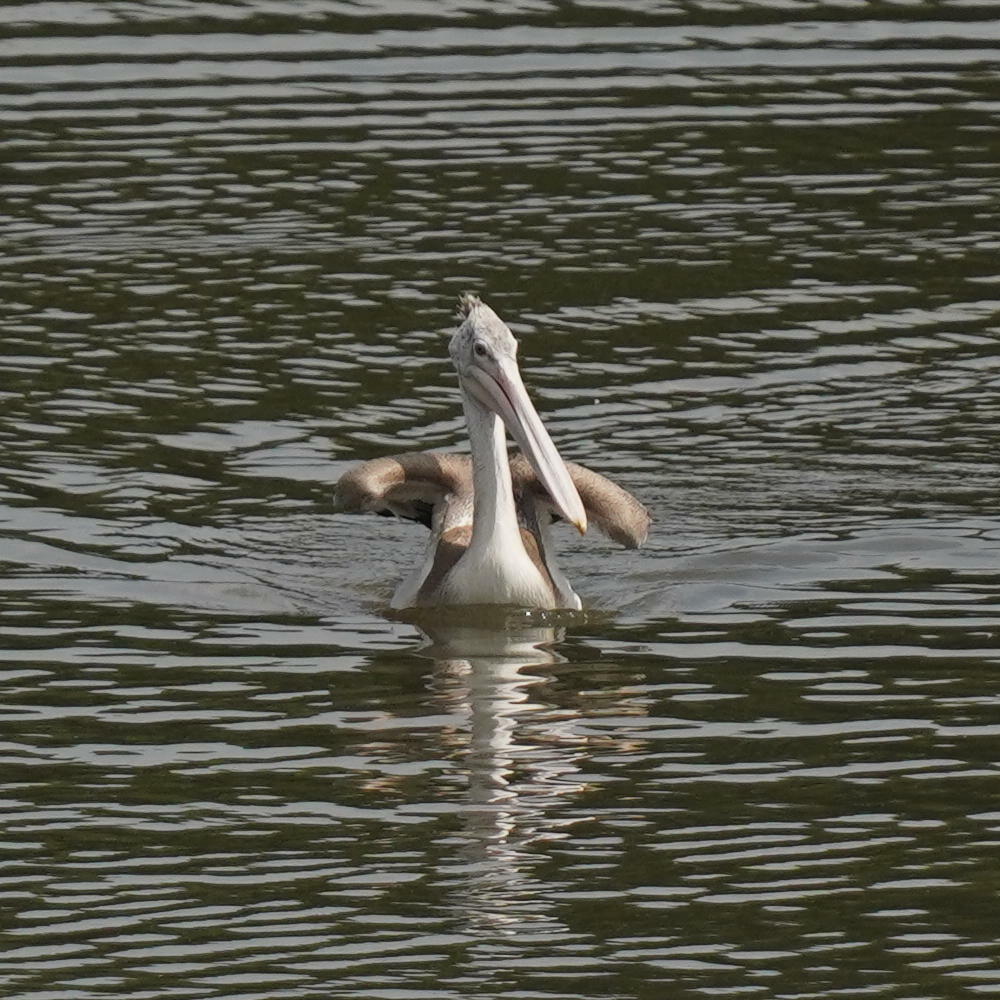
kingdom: Animalia
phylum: Chordata
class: Aves
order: Pelecaniformes
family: Pelecanidae
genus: Pelecanus
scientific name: Pelecanus philippensis
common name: Spot-billed pelican
